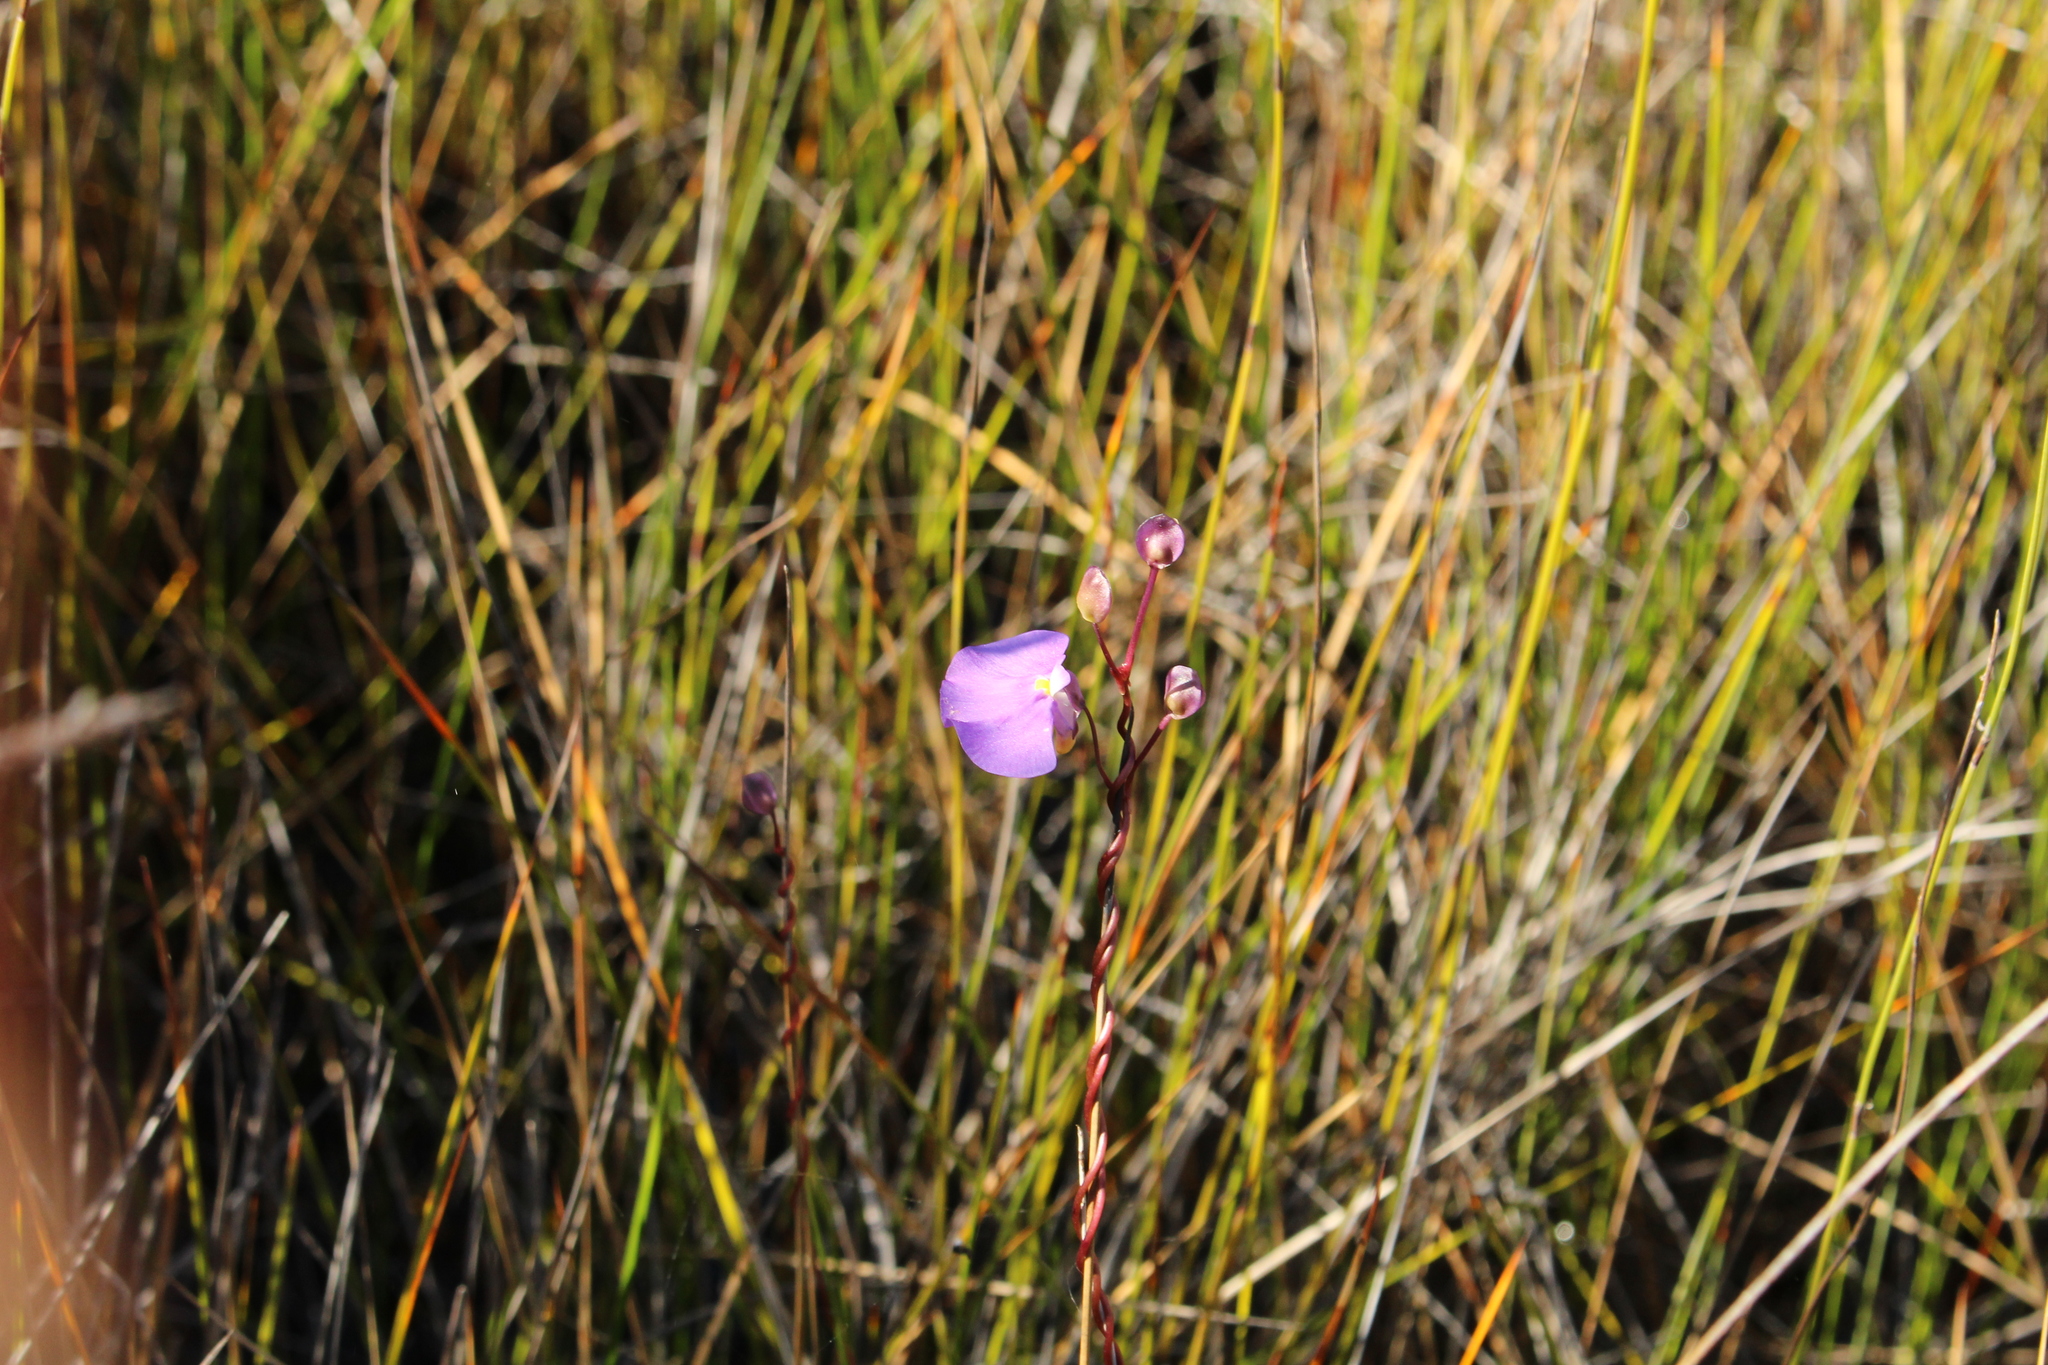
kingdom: Plantae
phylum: Tracheophyta
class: Magnoliopsida
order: Lamiales
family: Lentibulariaceae
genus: Utricularia
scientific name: Utricularia volubilis
